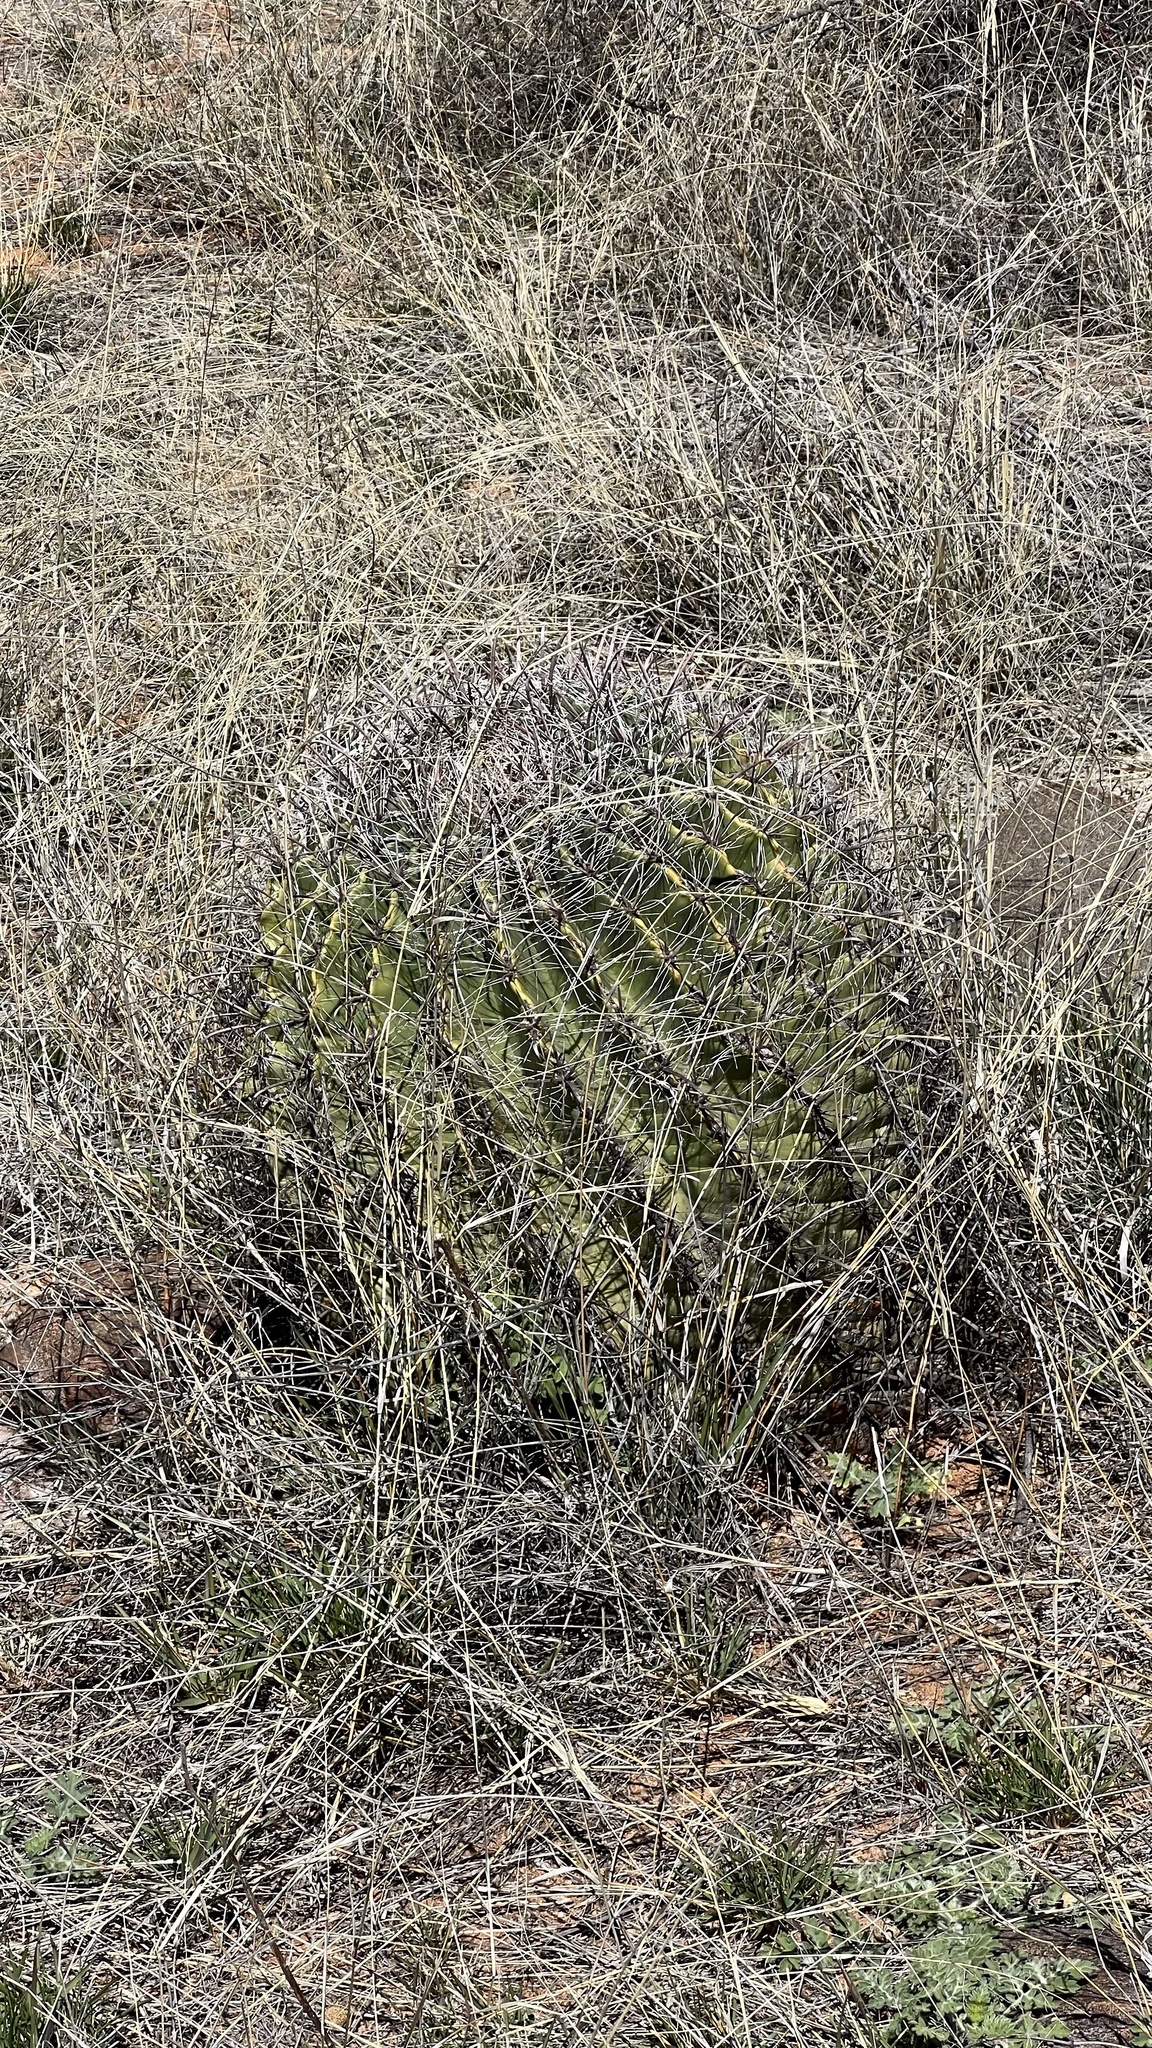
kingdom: Plantae
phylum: Tracheophyta
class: Magnoliopsida
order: Caryophyllales
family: Cactaceae
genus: Ferocactus
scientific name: Ferocactus wislizeni
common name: Candy barrel cactus
